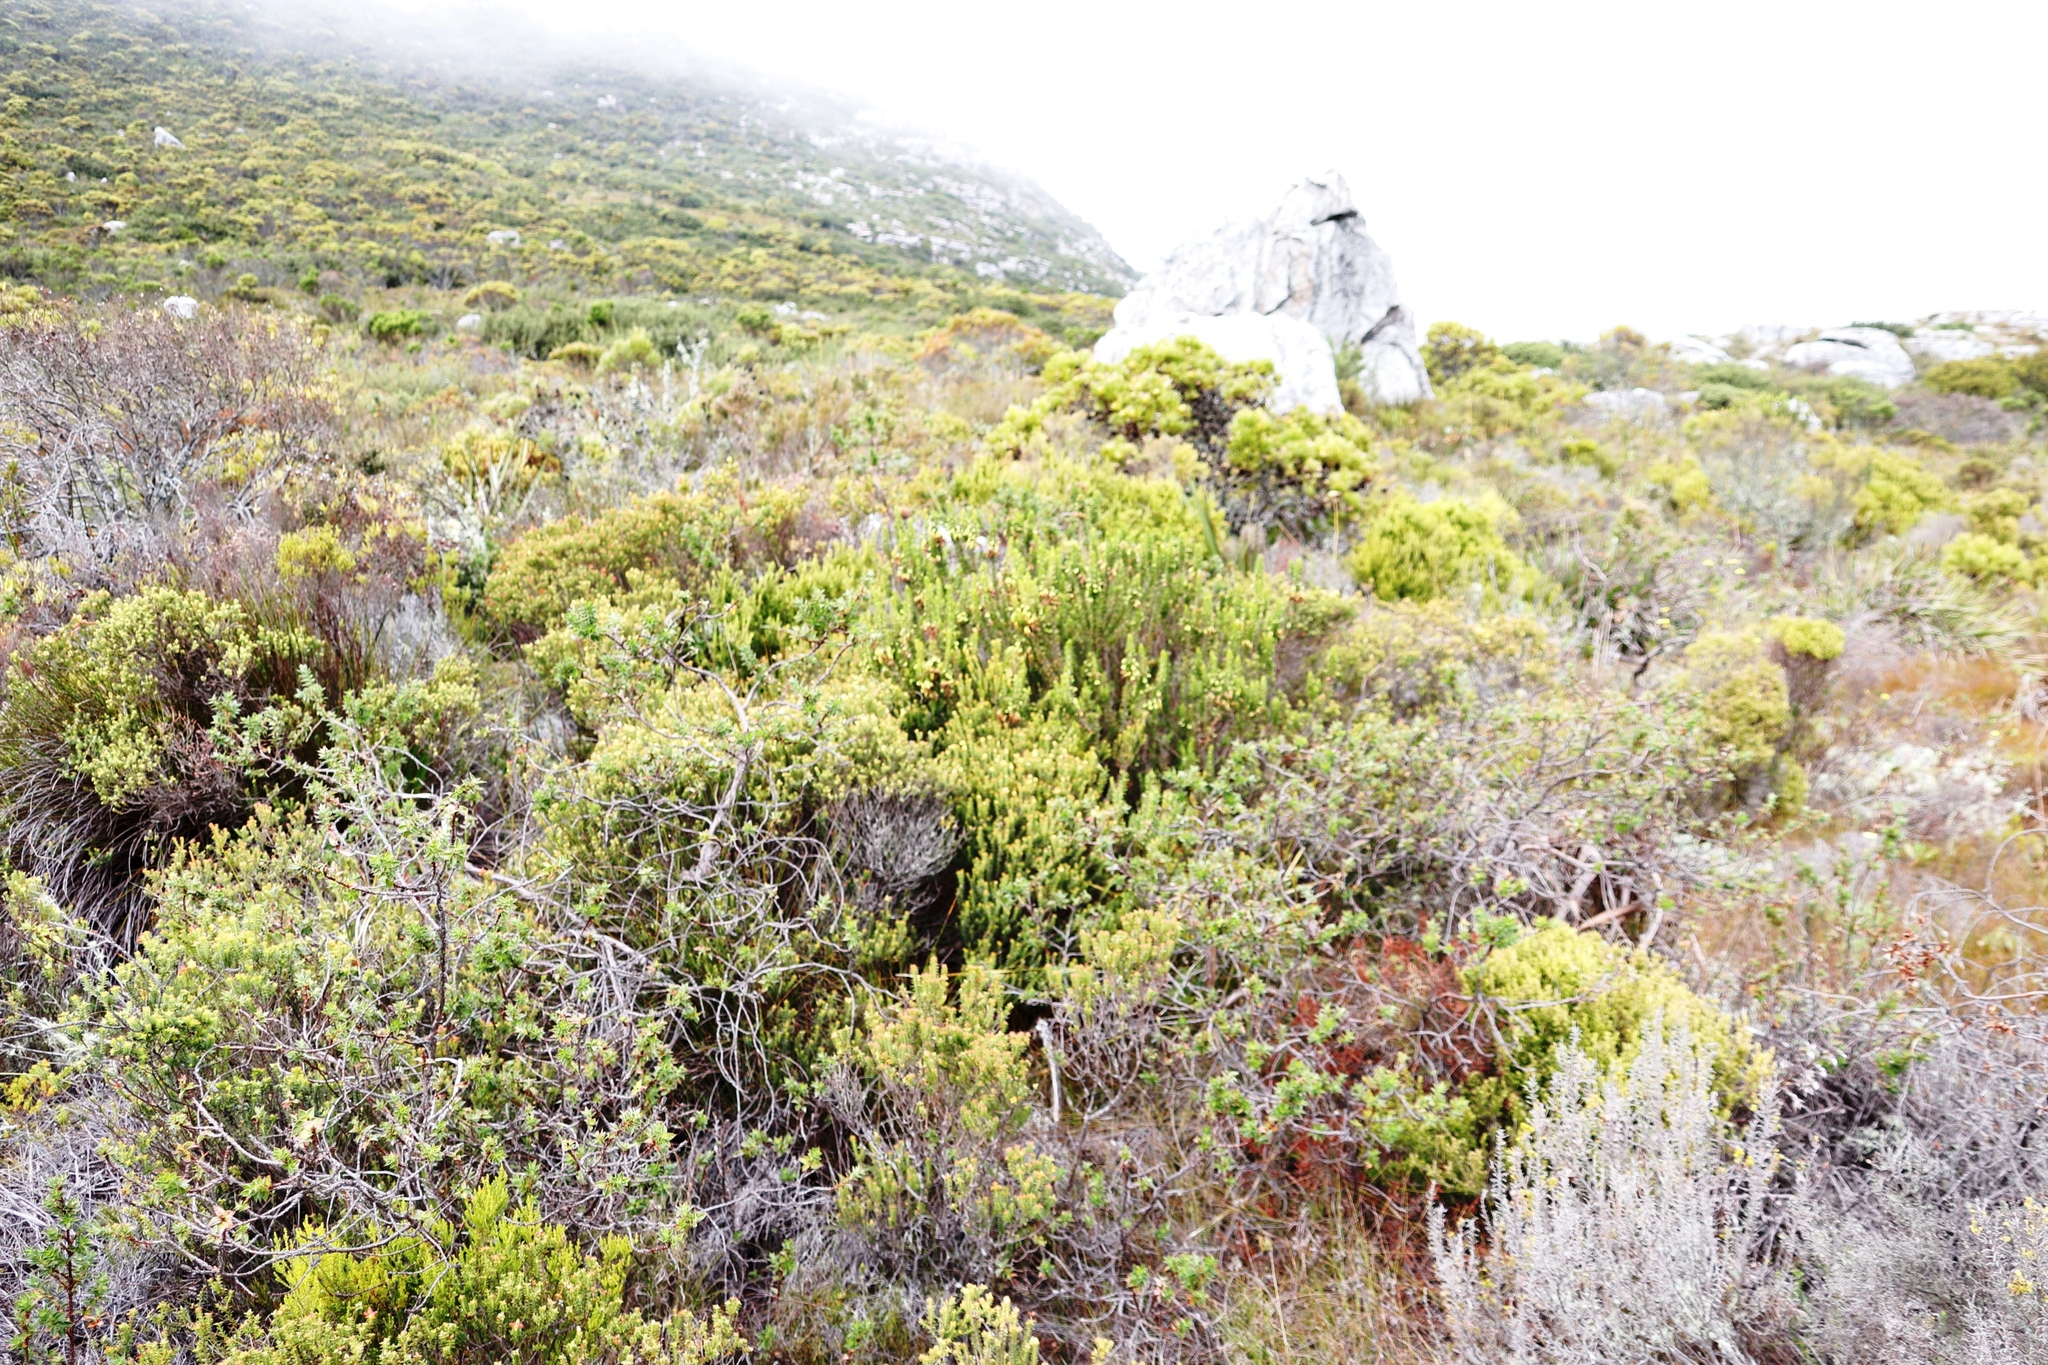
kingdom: Plantae
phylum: Tracheophyta
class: Magnoliopsida
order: Ericales
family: Ericaceae
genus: Erica
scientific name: Erica coccinea
